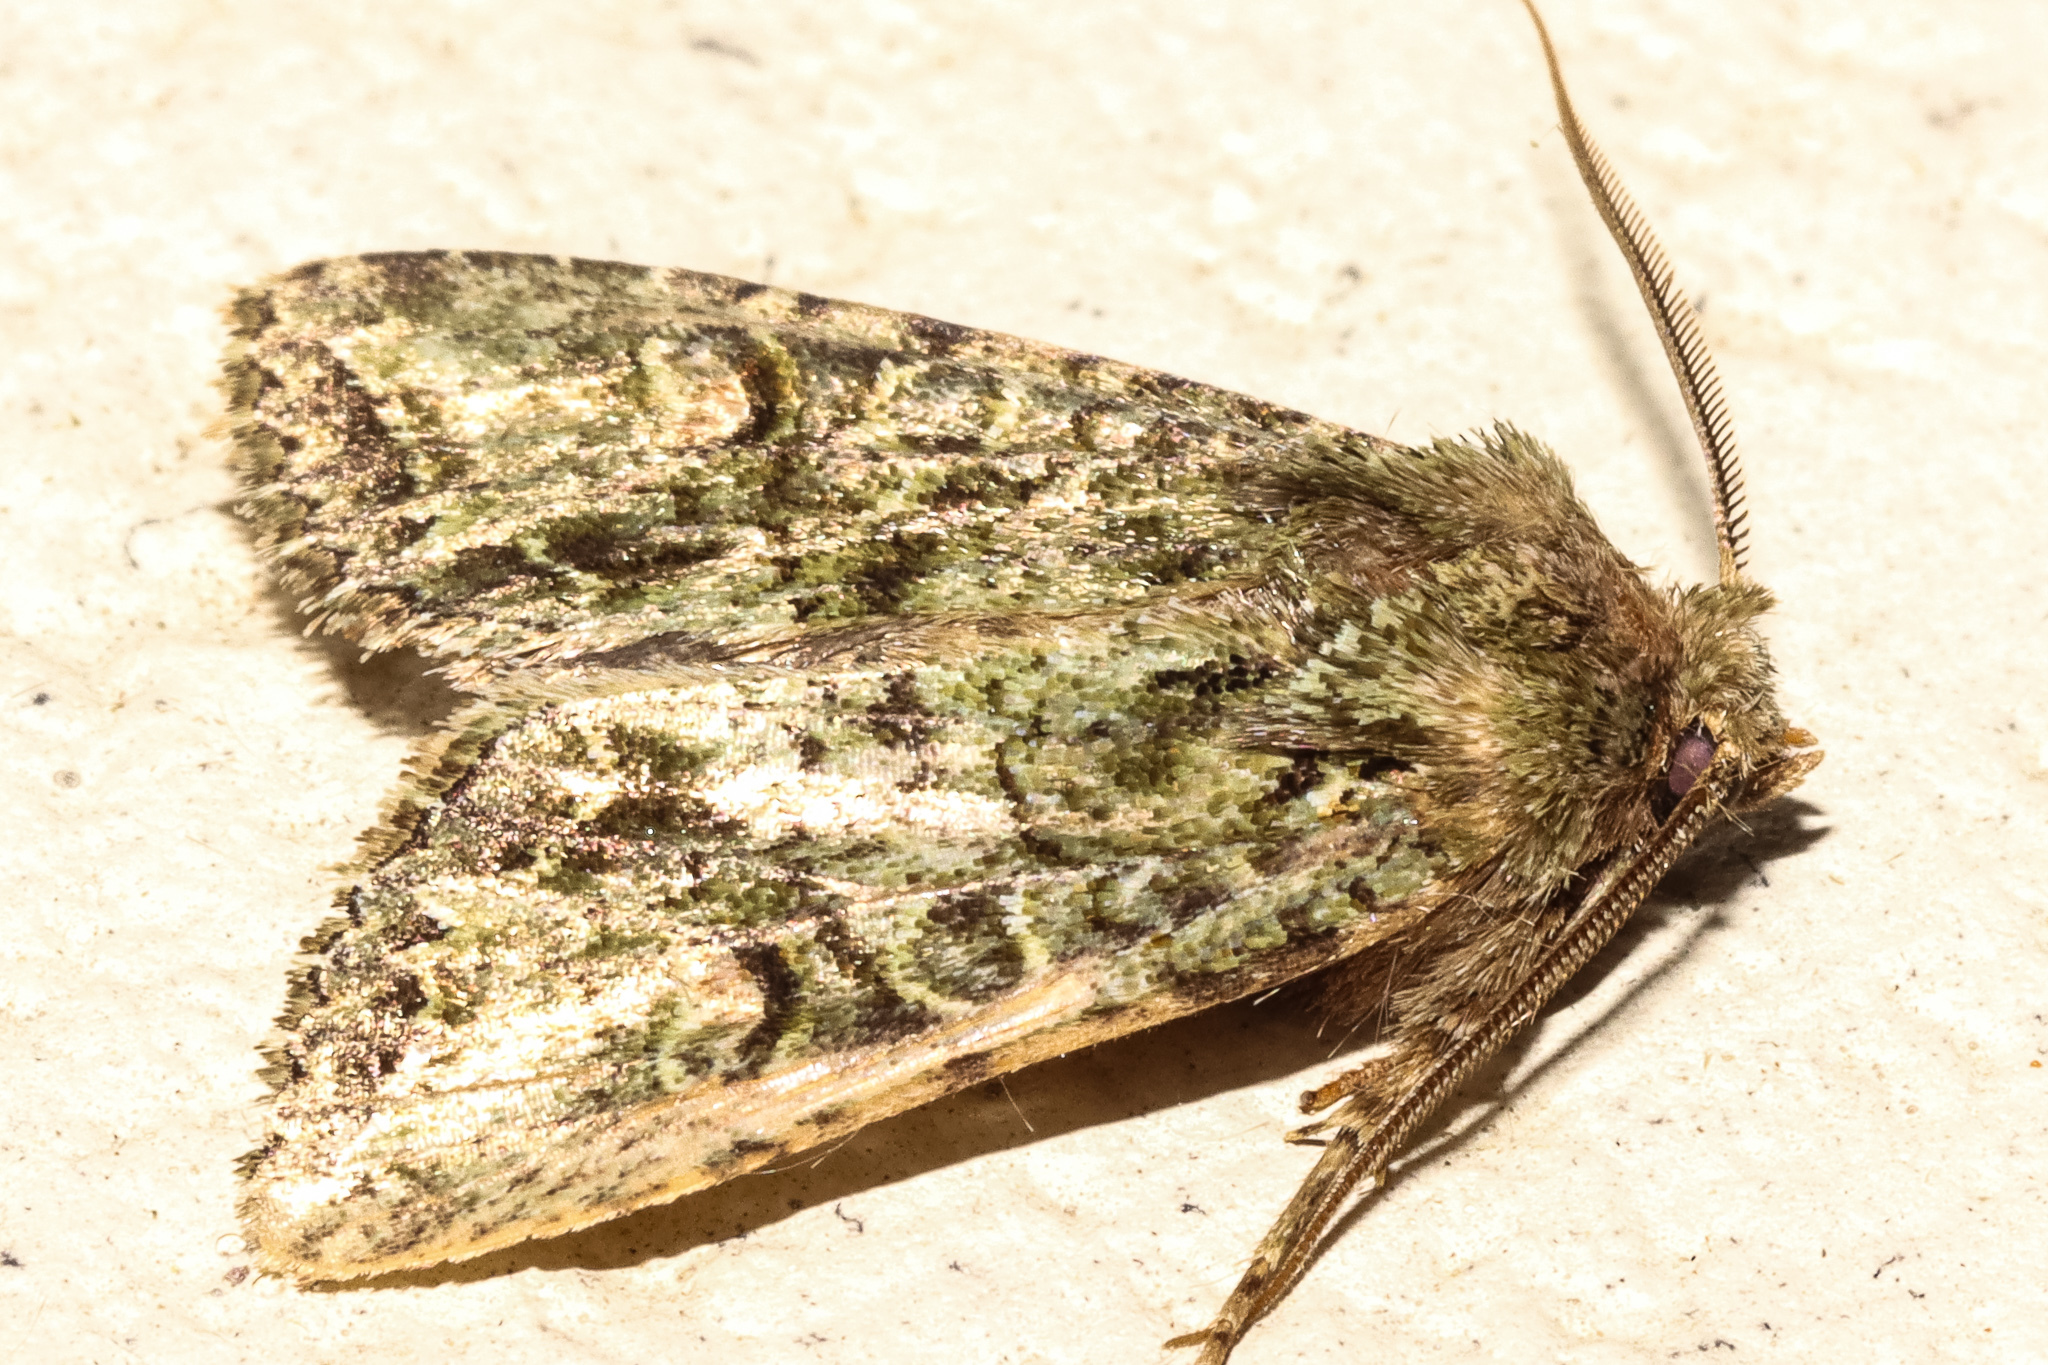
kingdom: Animalia
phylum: Arthropoda
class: Insecta
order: Lepidoptera
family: Noctuidae
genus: Ichneutica
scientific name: Ichneutica
